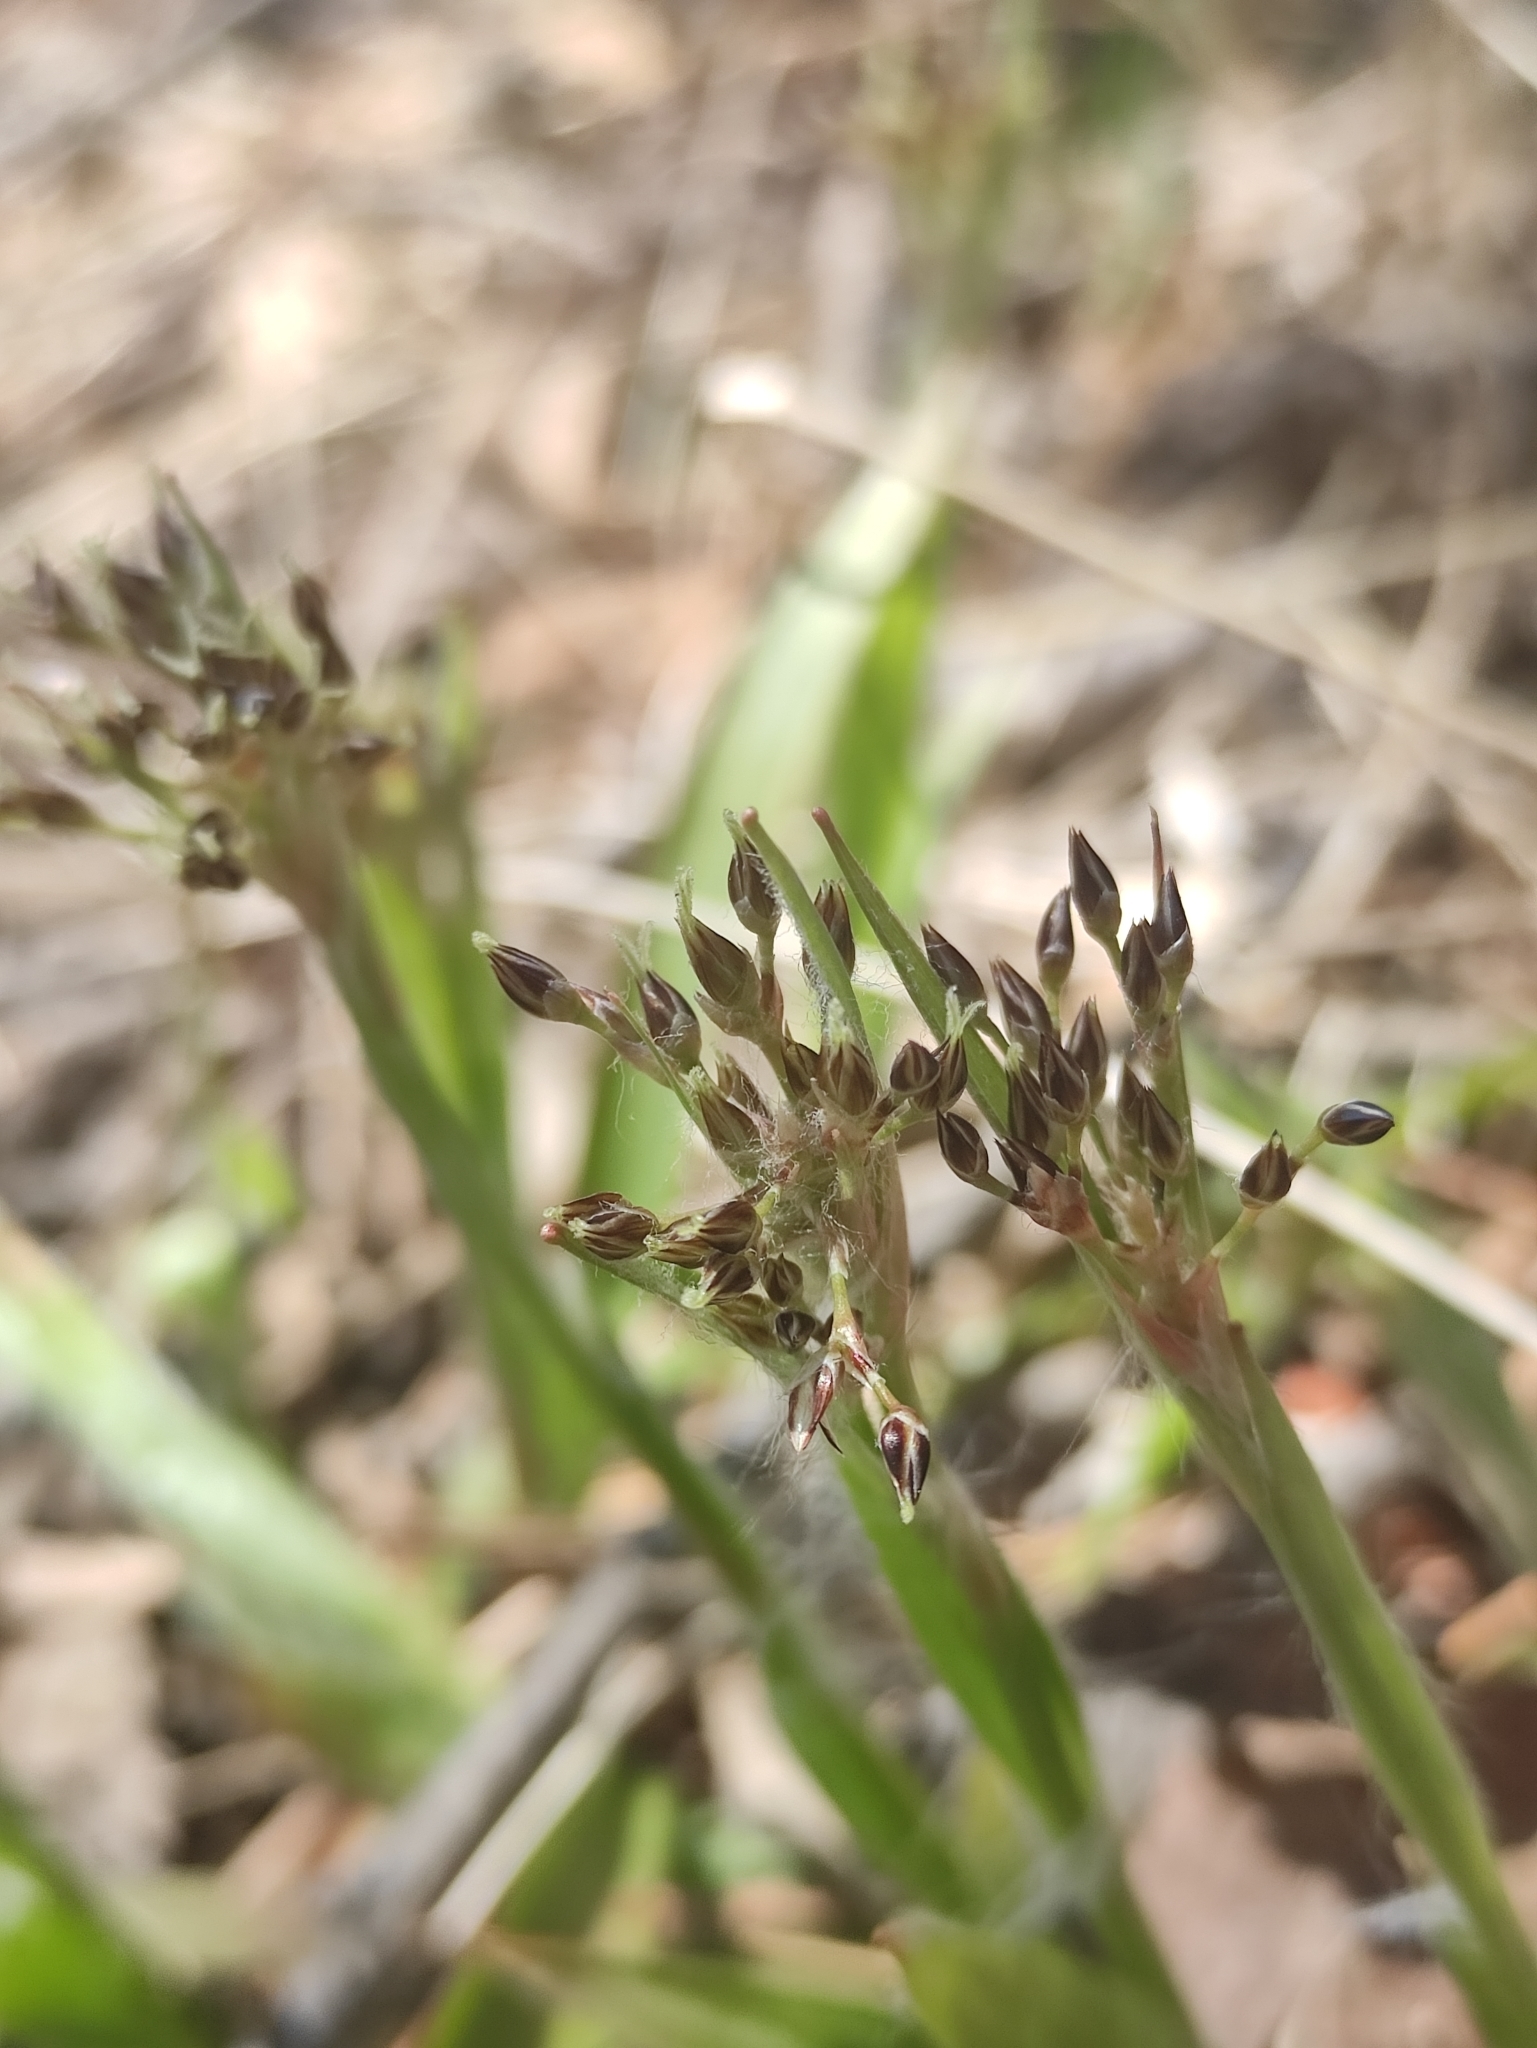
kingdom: Plantae
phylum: Tracheophyta
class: Liliopsida
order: Poales
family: Juncaceae
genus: Luzula
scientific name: Luzula pilosa
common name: Hairy wood-rush
